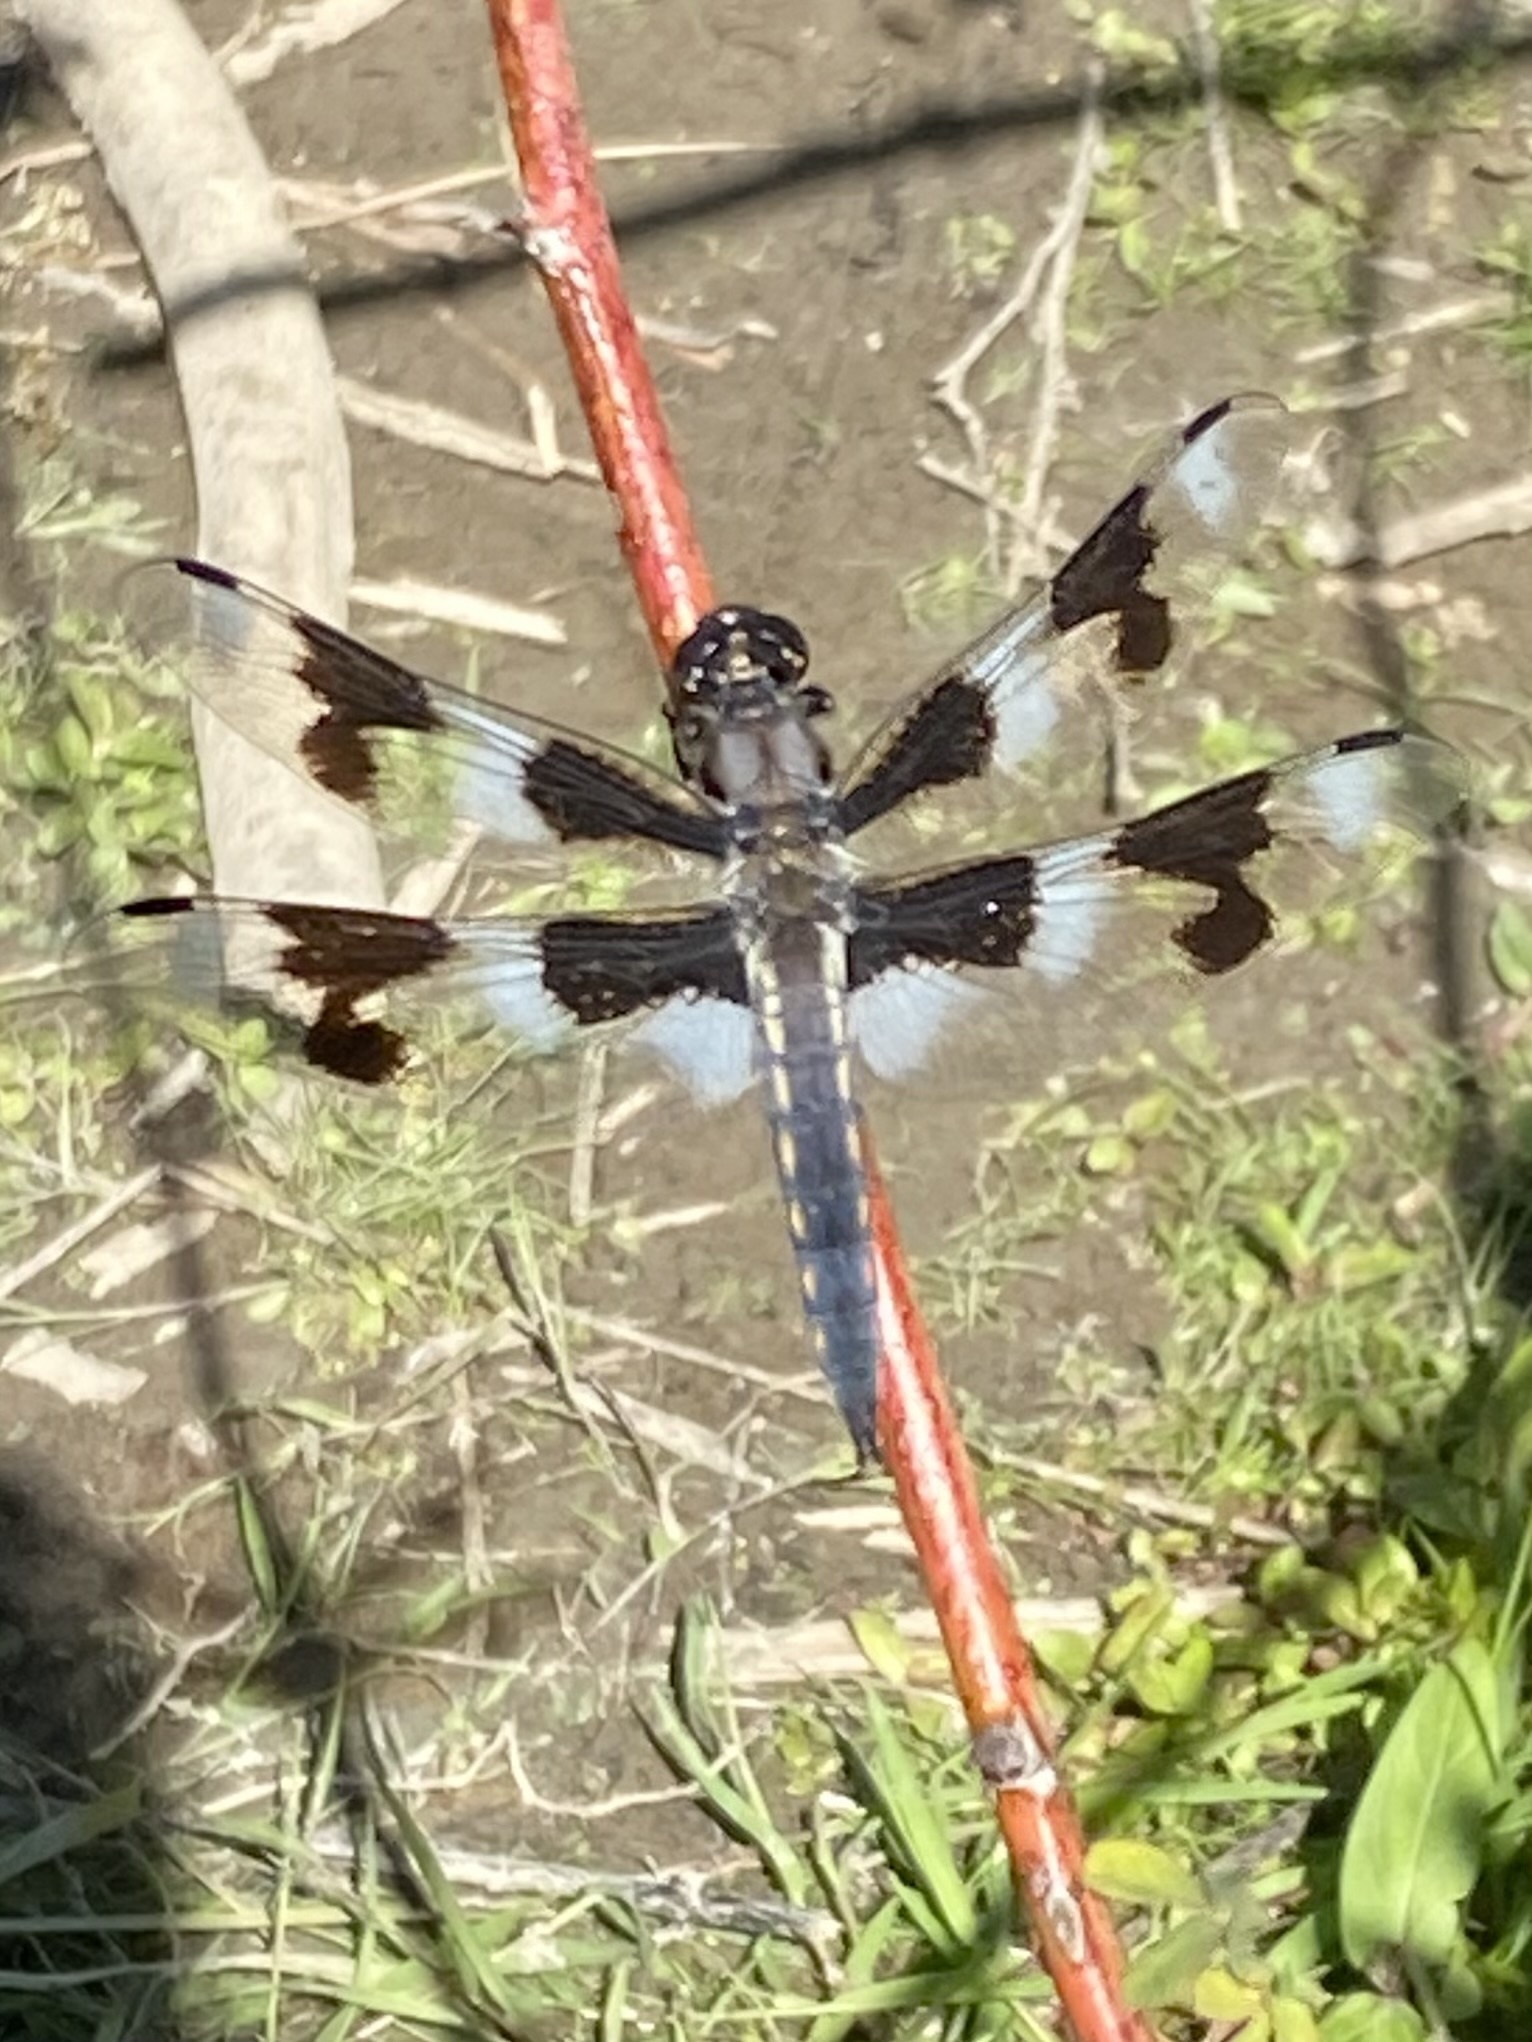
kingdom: Animalia
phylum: Arthropoda
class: Insecta
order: Odonata
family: Libellulidae
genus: Libellula
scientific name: Libellula forensis
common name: Eight-spotted skimmer
